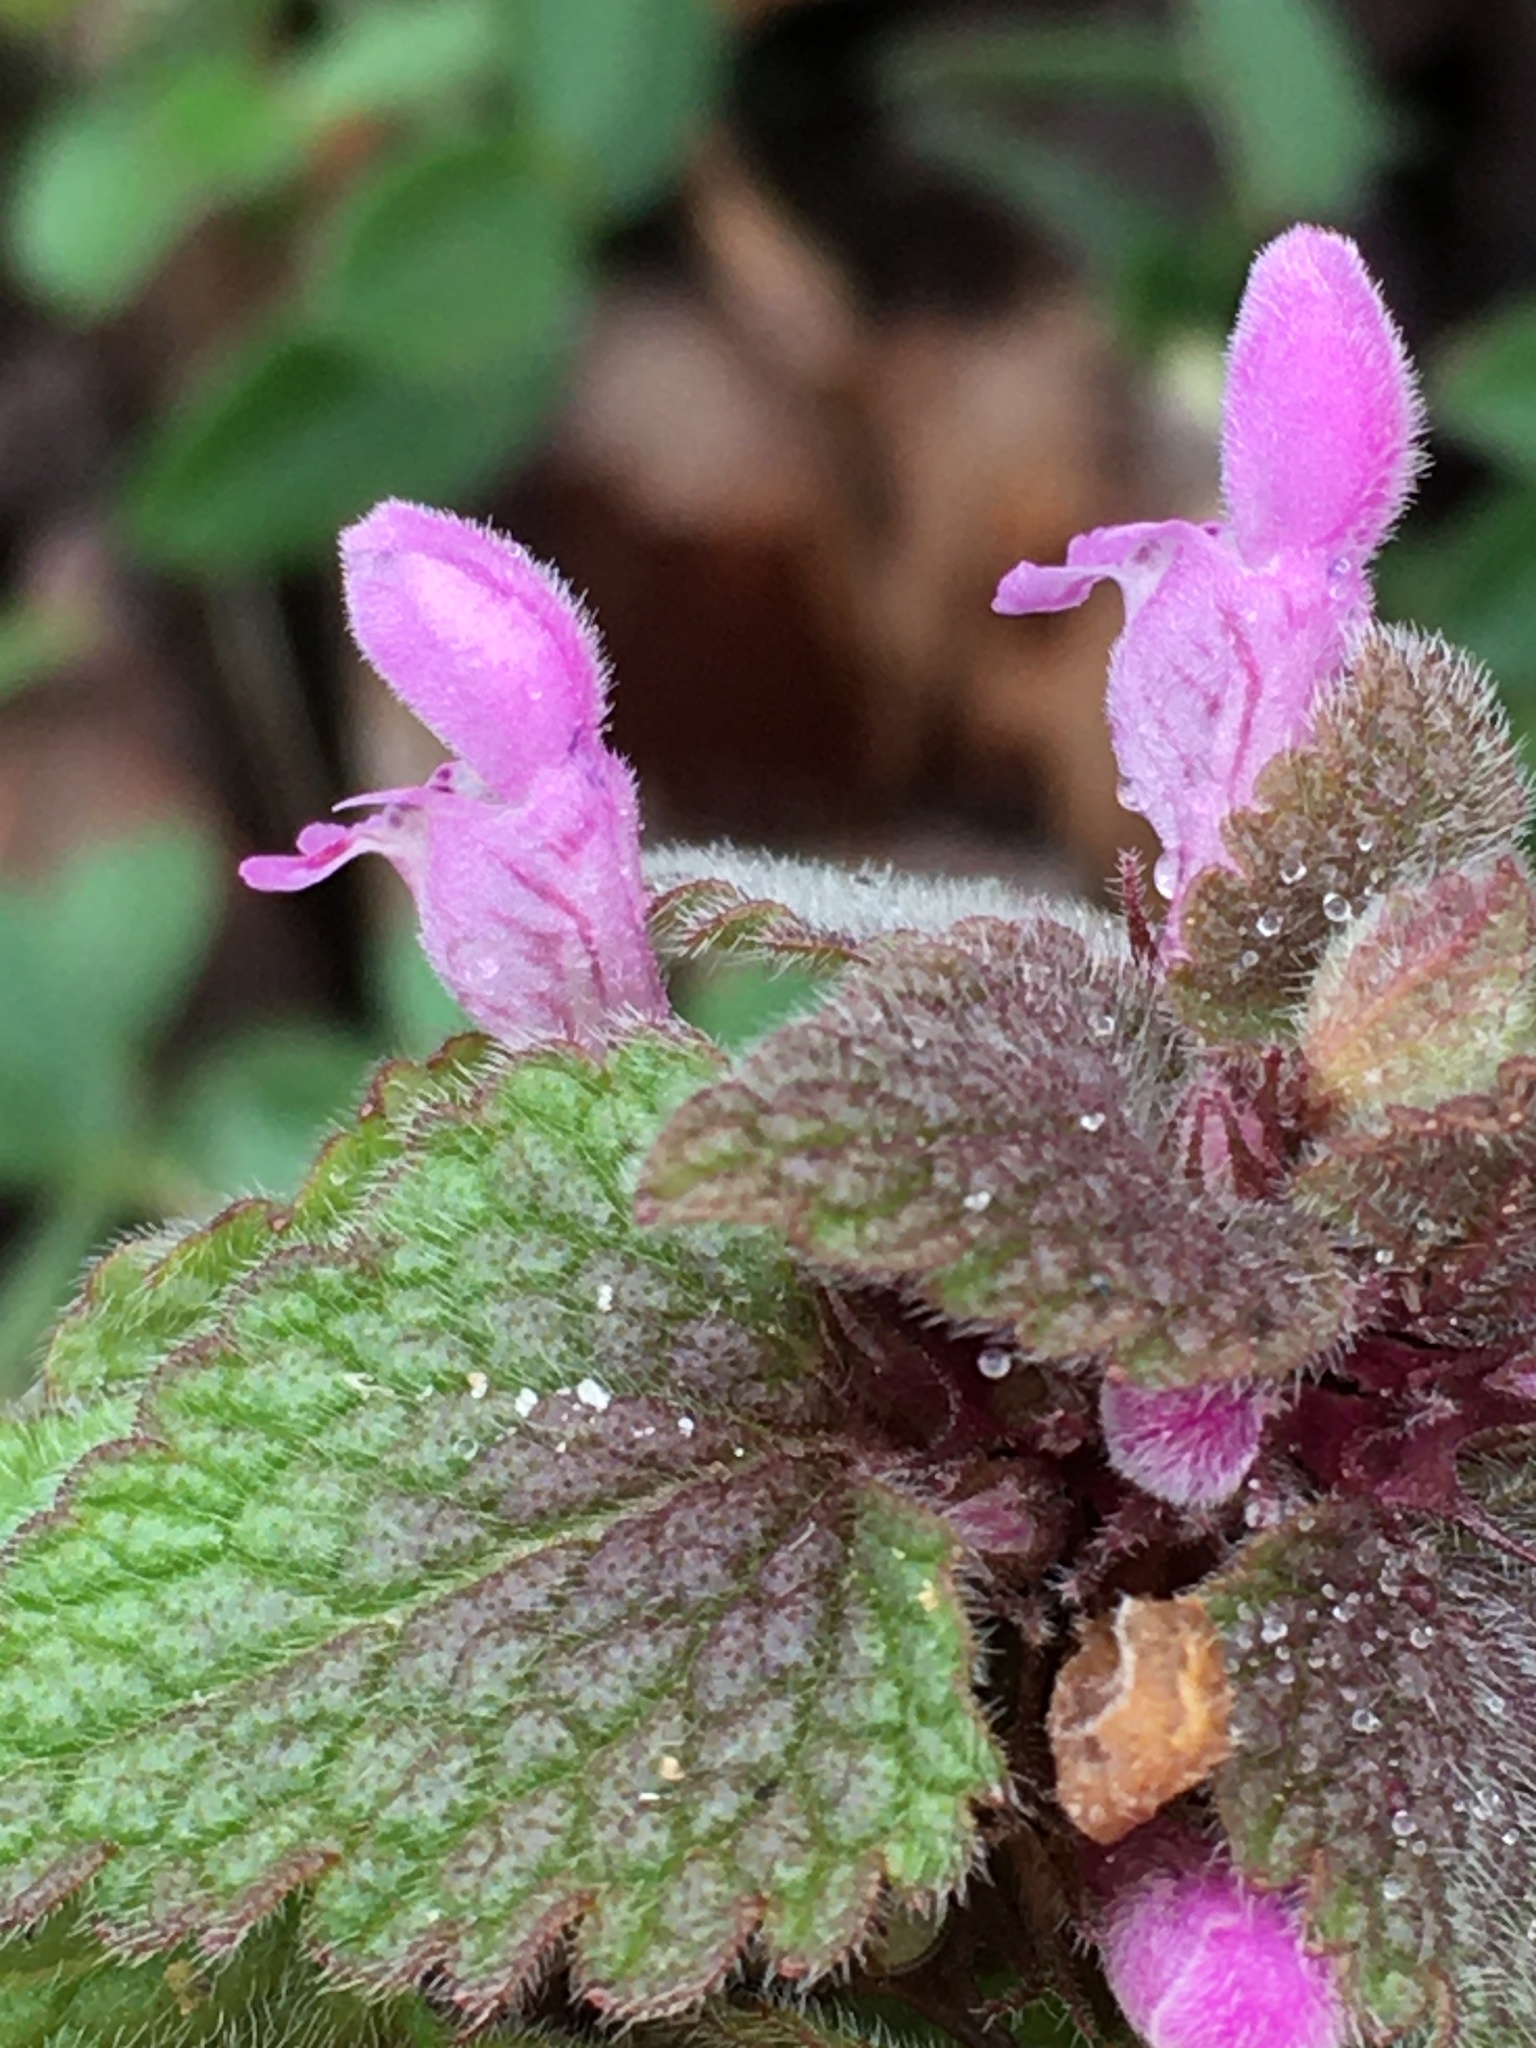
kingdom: Plantae
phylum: Tracheophyta
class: Magnoliopsida
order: Lamiales
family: Lamiaceae
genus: Lamium
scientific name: Lamium purpureum
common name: Red dead-nettle
